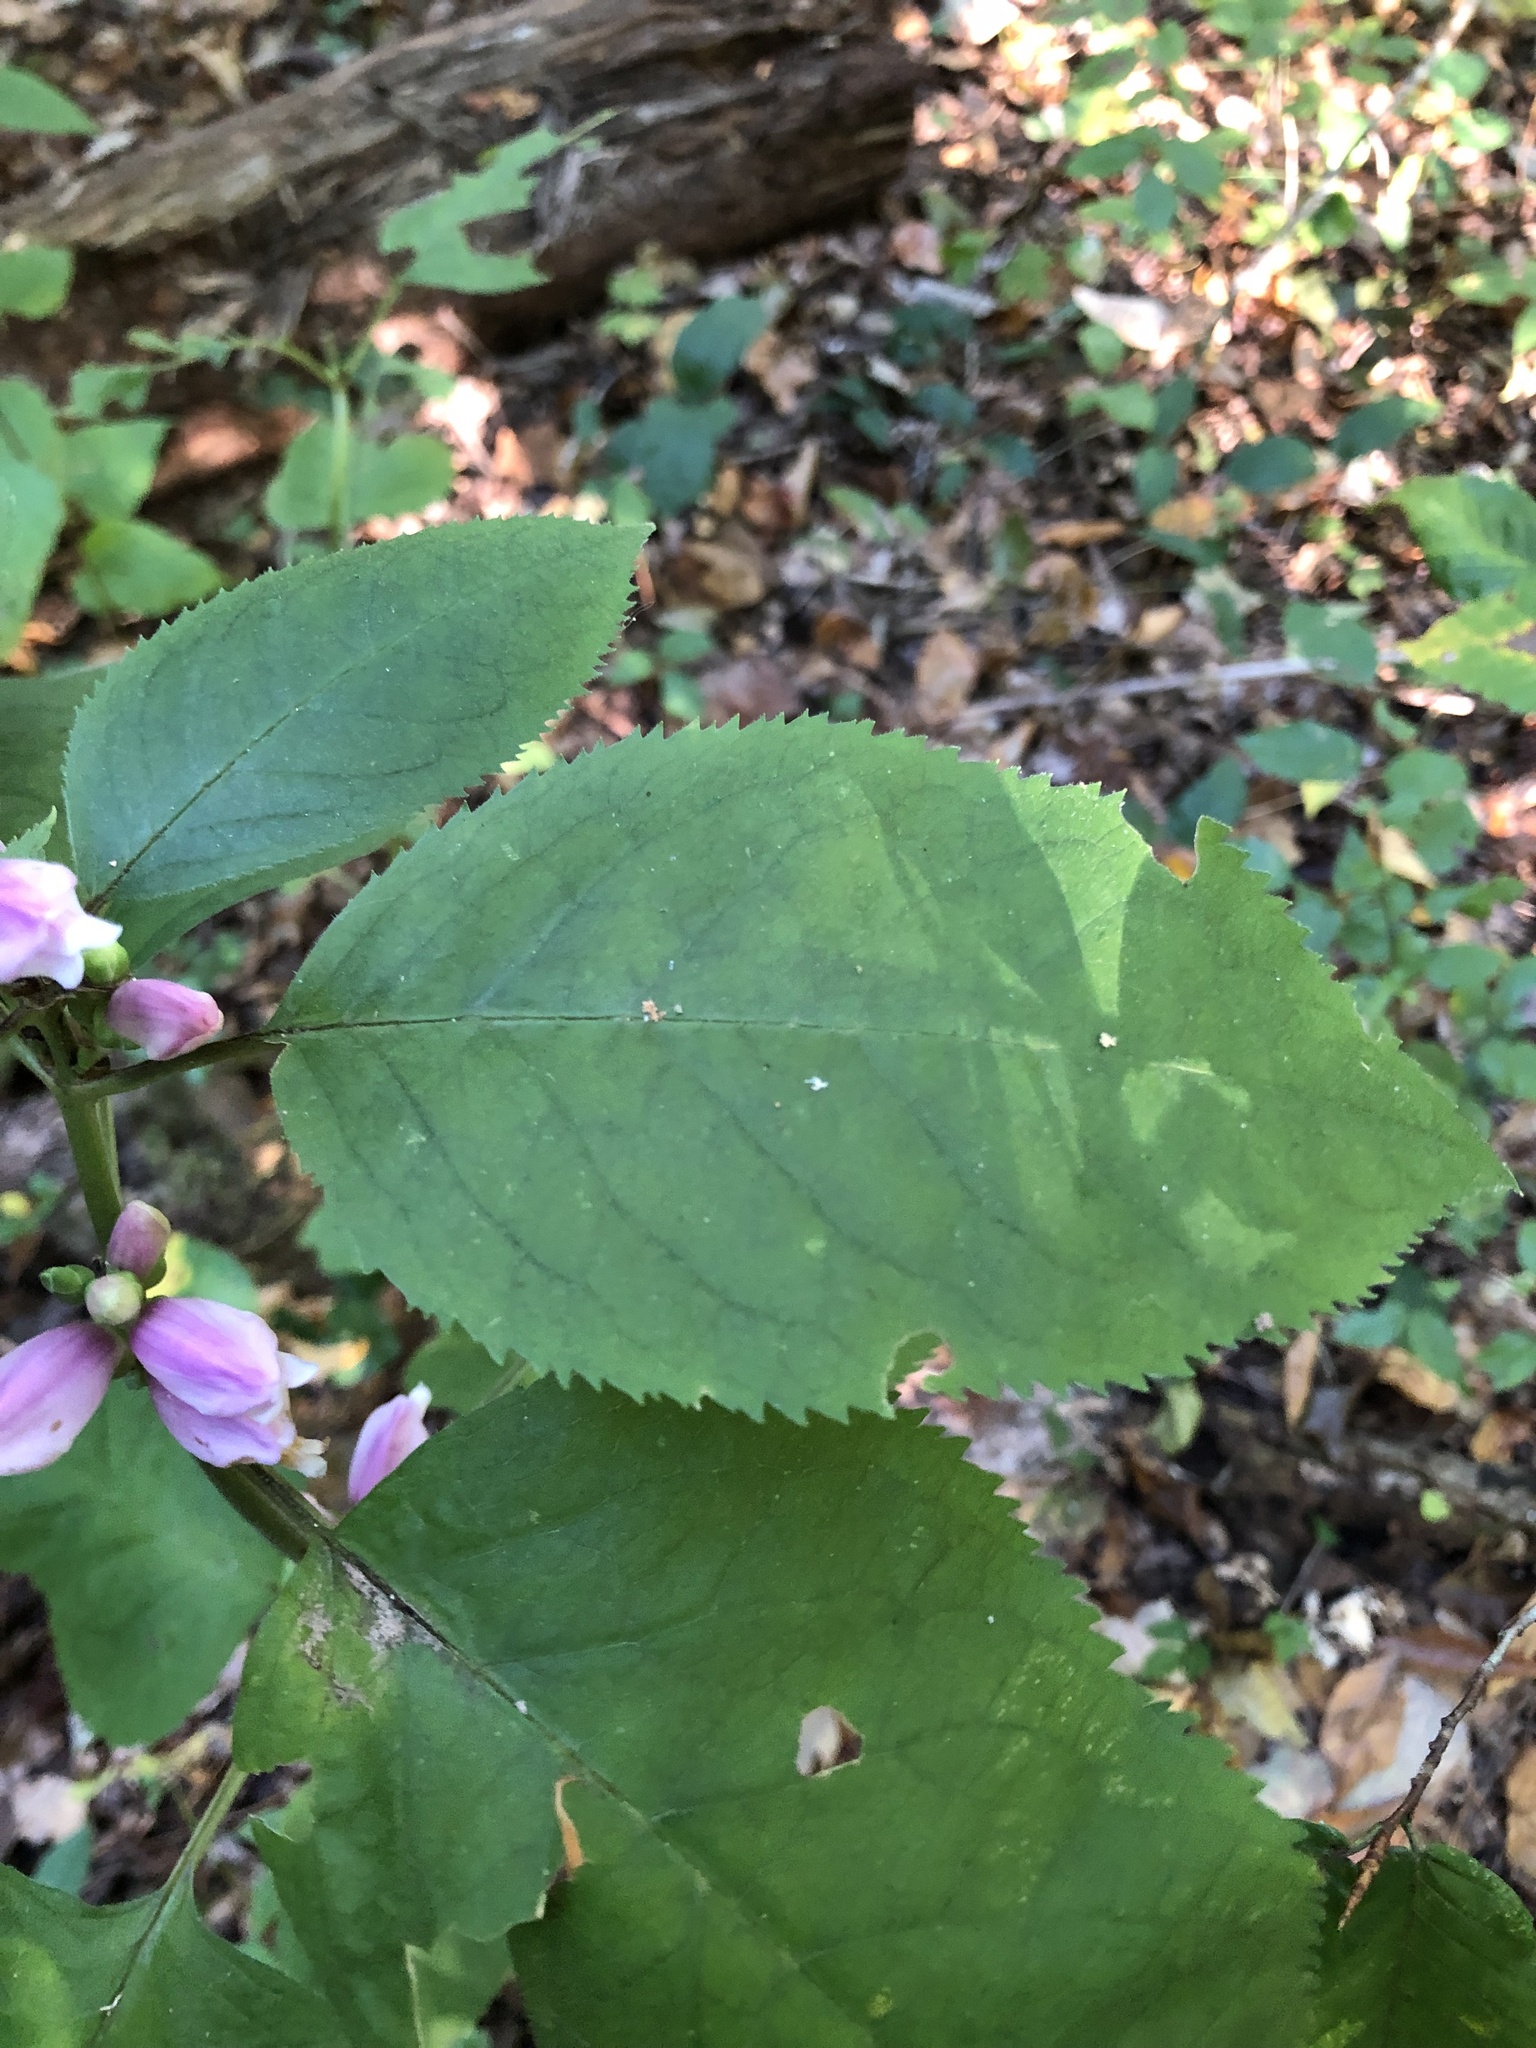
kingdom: Plantae
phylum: Tracheophyta
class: Magnoliopsida
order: Lamiales
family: Plantaginaceae
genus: Chelone
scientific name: Chelone lyonii
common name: Pink turtlehead
